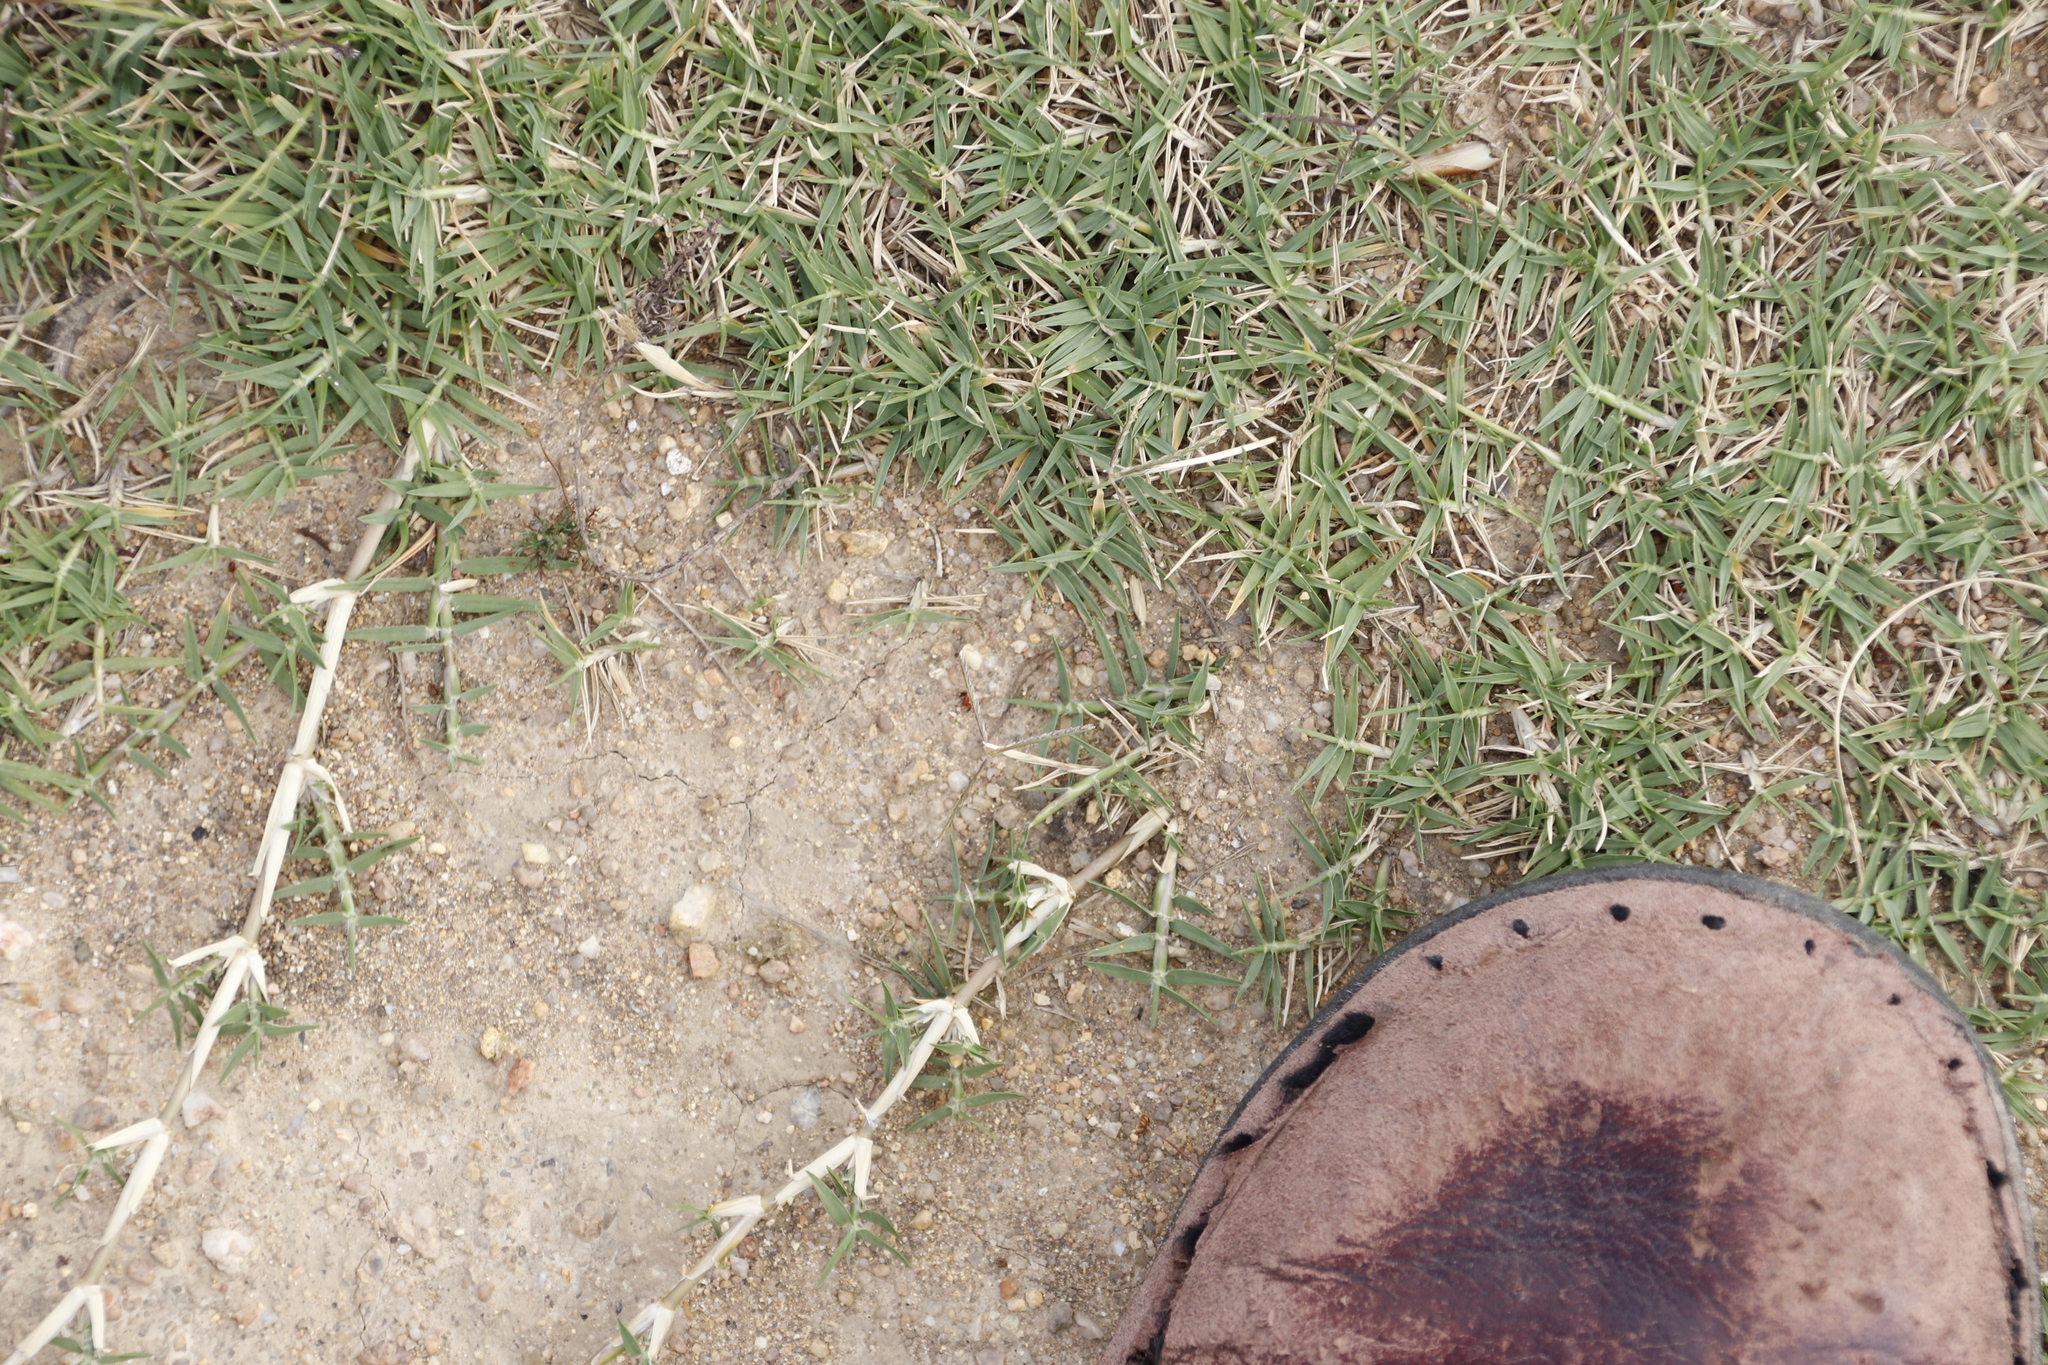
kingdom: Plantae
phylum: Tracheophyta
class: Liliopsida
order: Poales
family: Poaceae
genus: Cynodon
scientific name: Cynodon dactylon
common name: Bermuda grass
